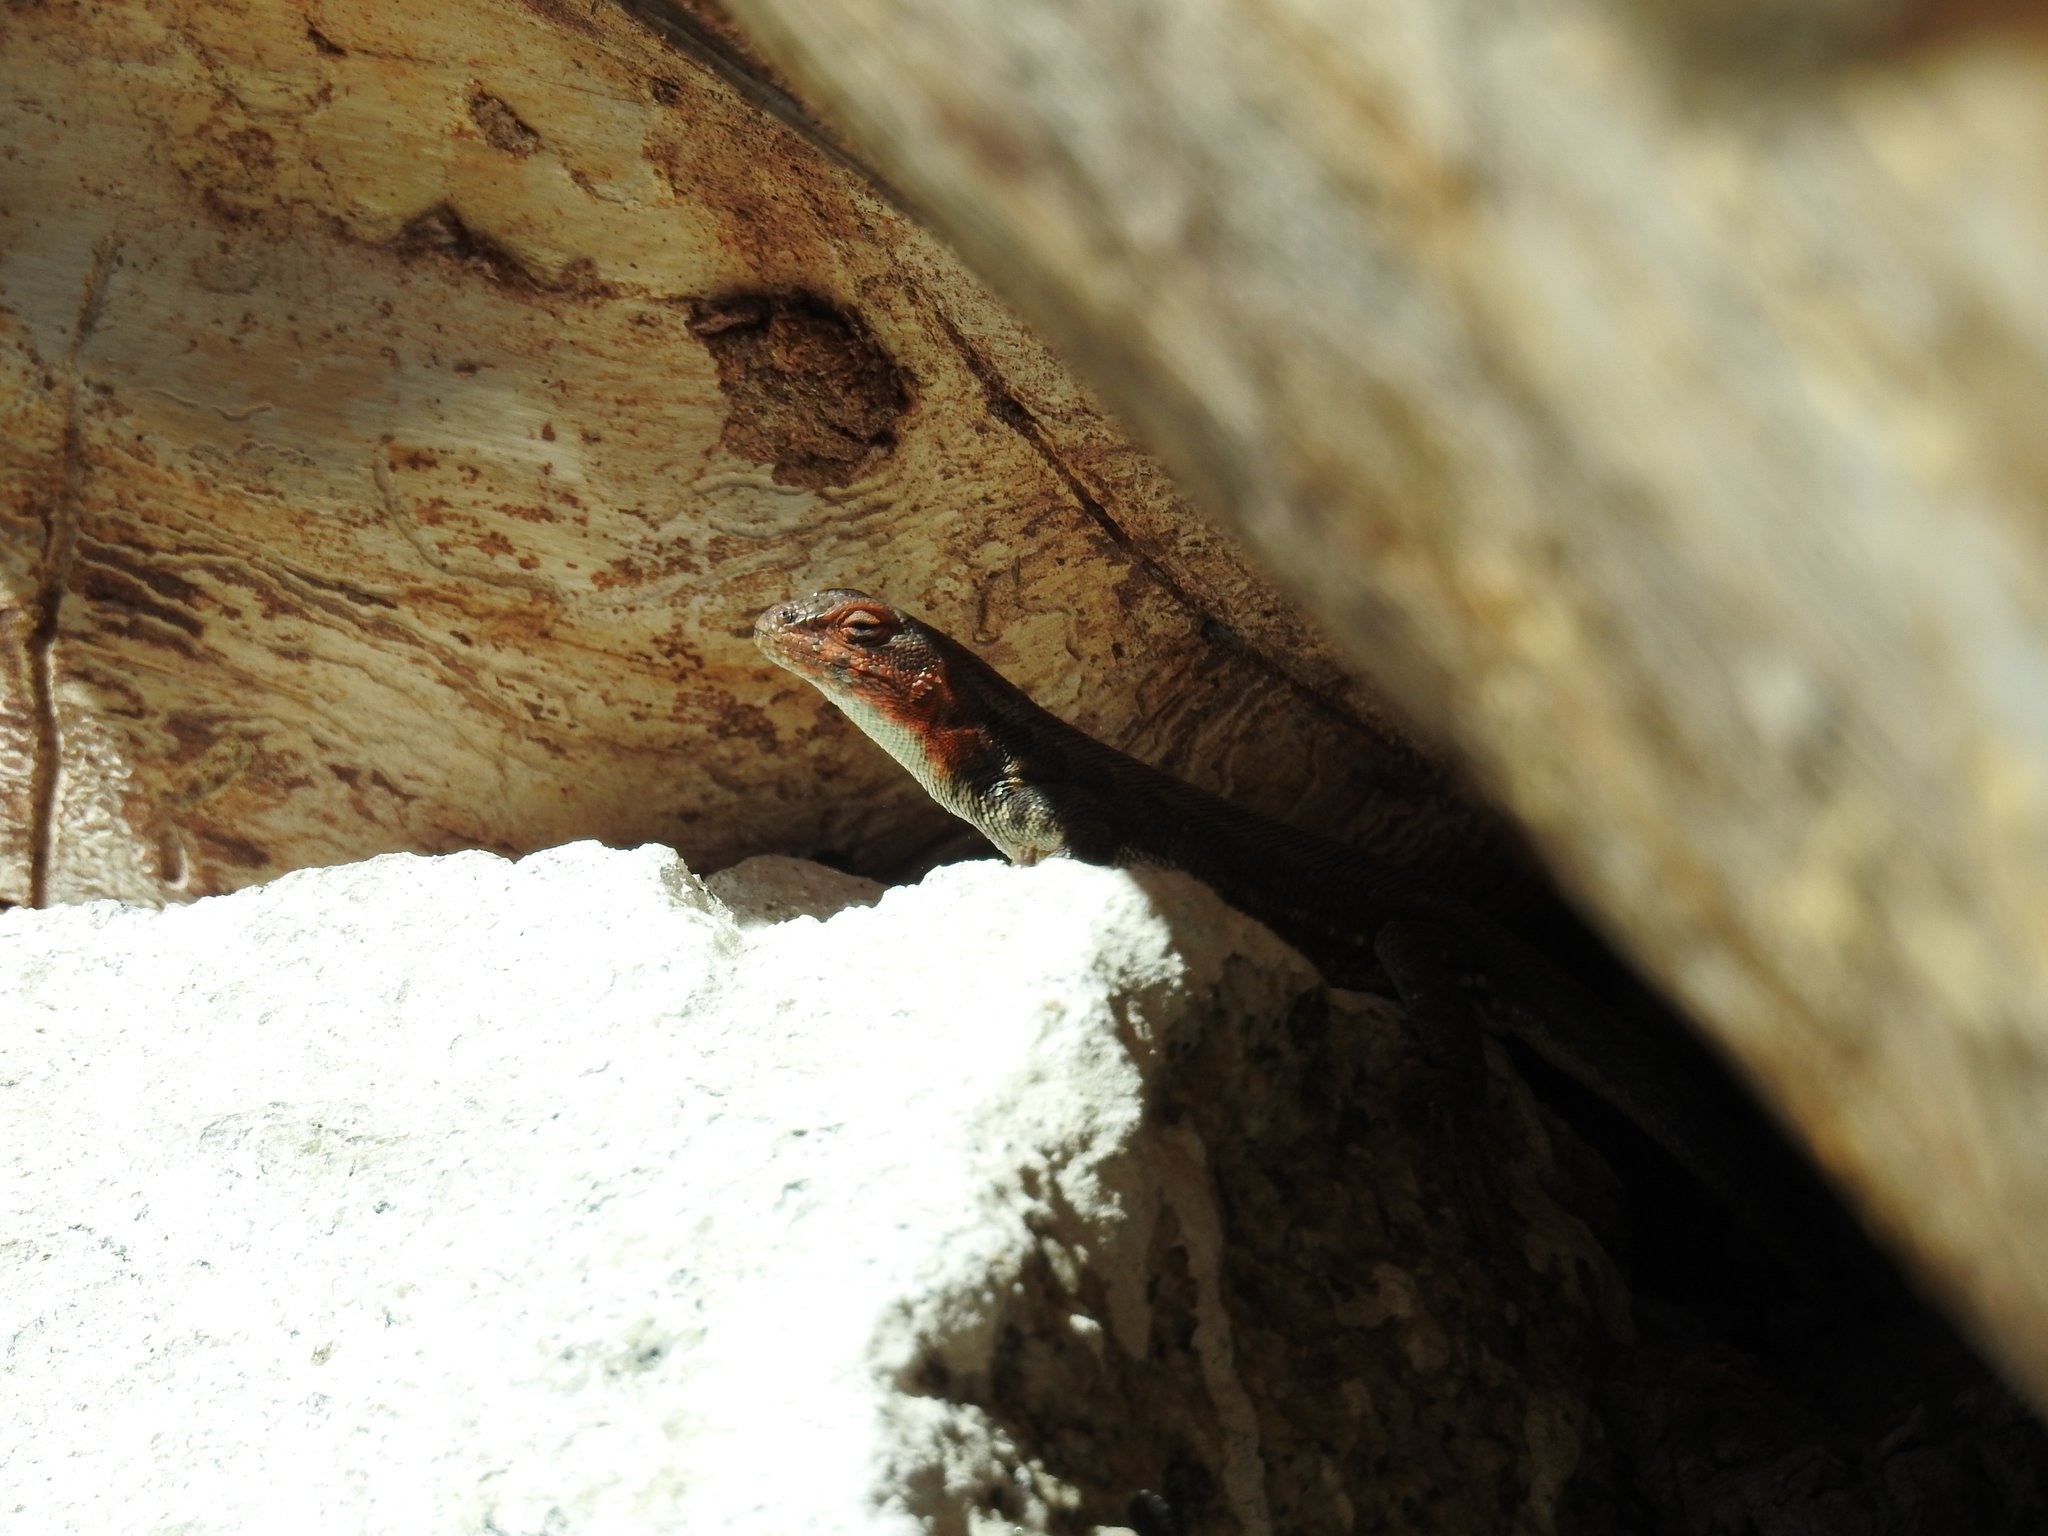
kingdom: Animalia
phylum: Chordata
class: Squamata
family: Phrynosomatidae
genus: Sceloporus
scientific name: Sceloporus graciosus
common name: Sagebrush lizard
